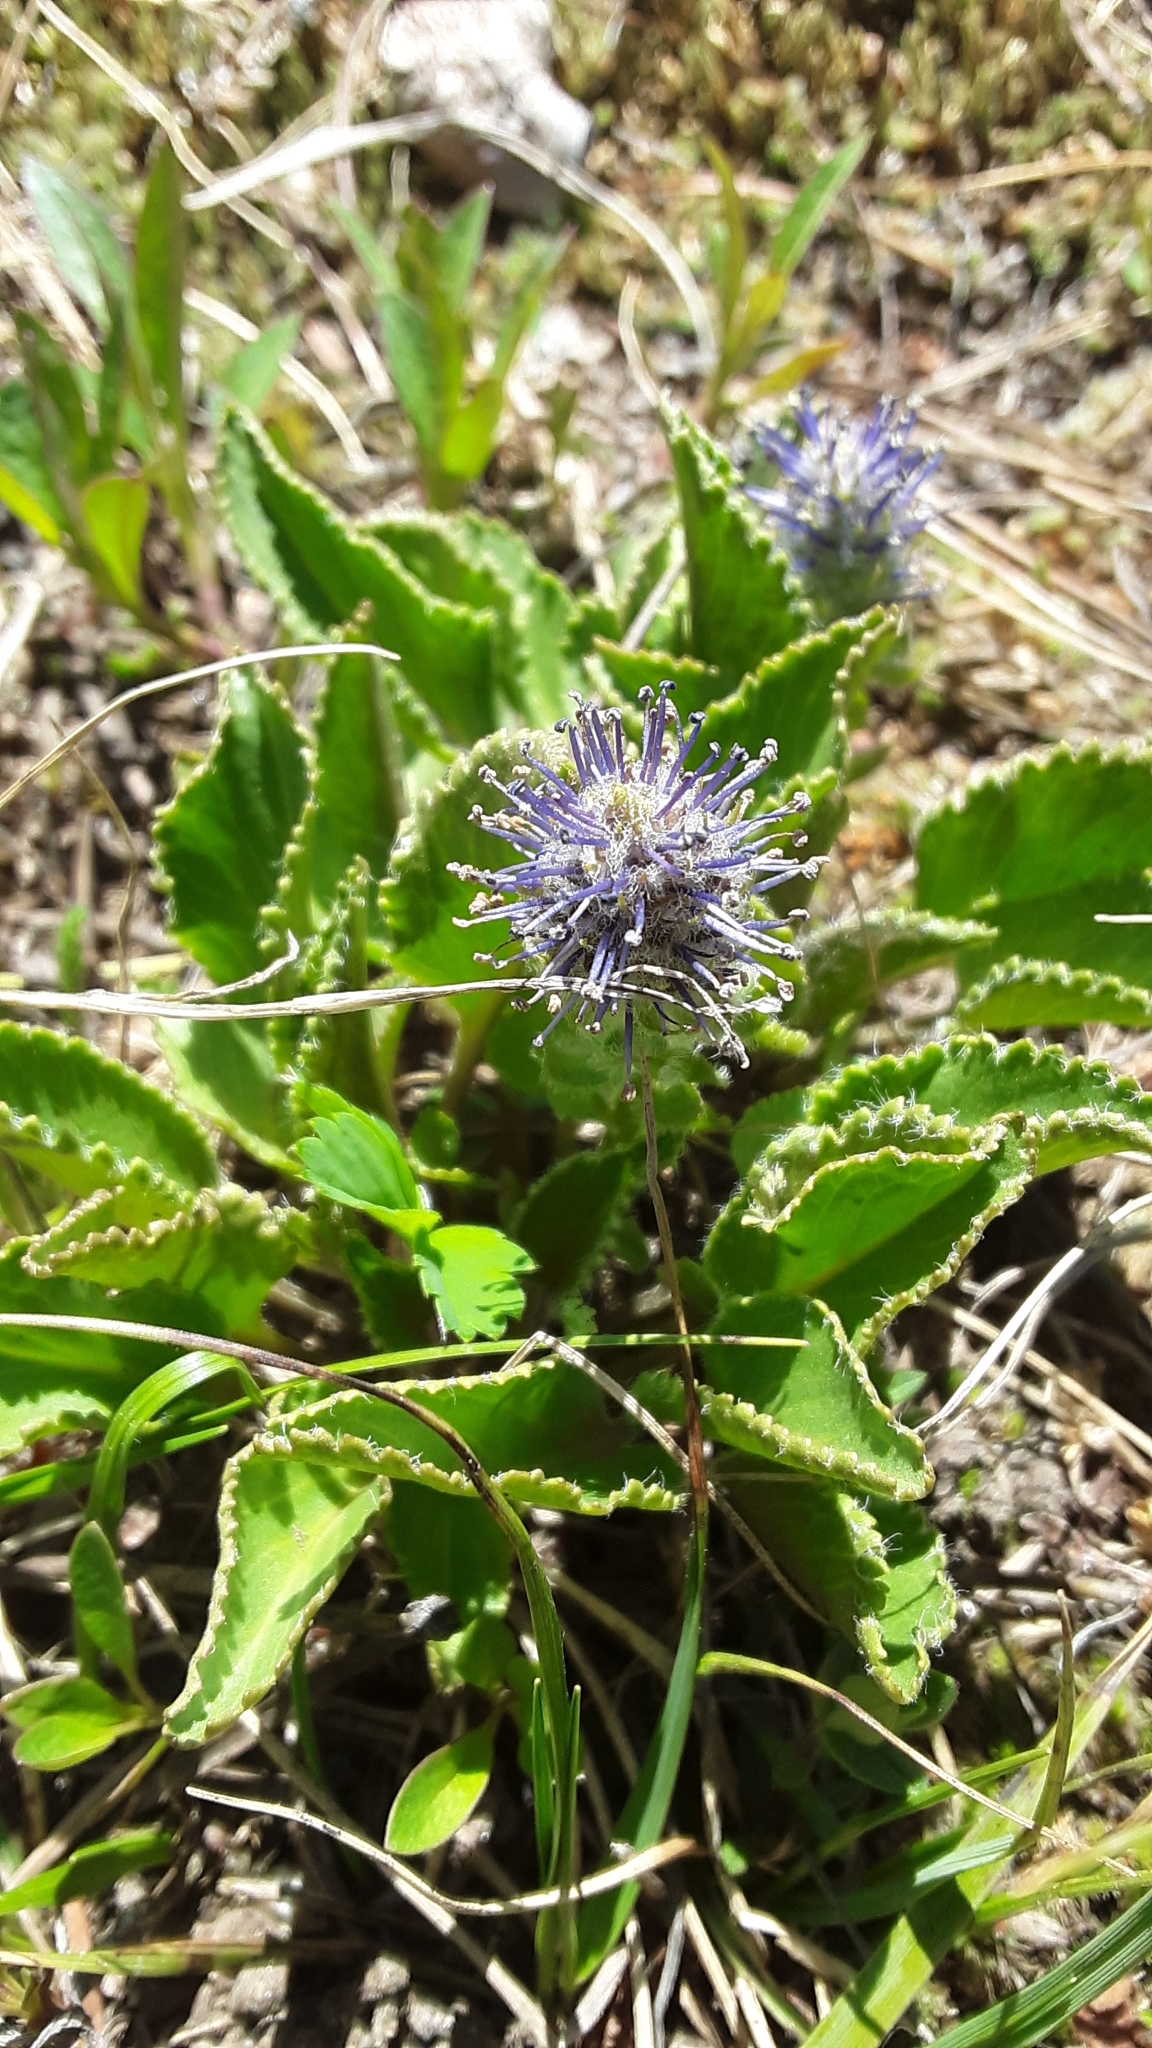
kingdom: Plantae
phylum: Tracheophyta
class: Magnoliopsida
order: Lamiales
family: Plantaginaceae
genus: Synthyris
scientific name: Synthyris wyomingensis
